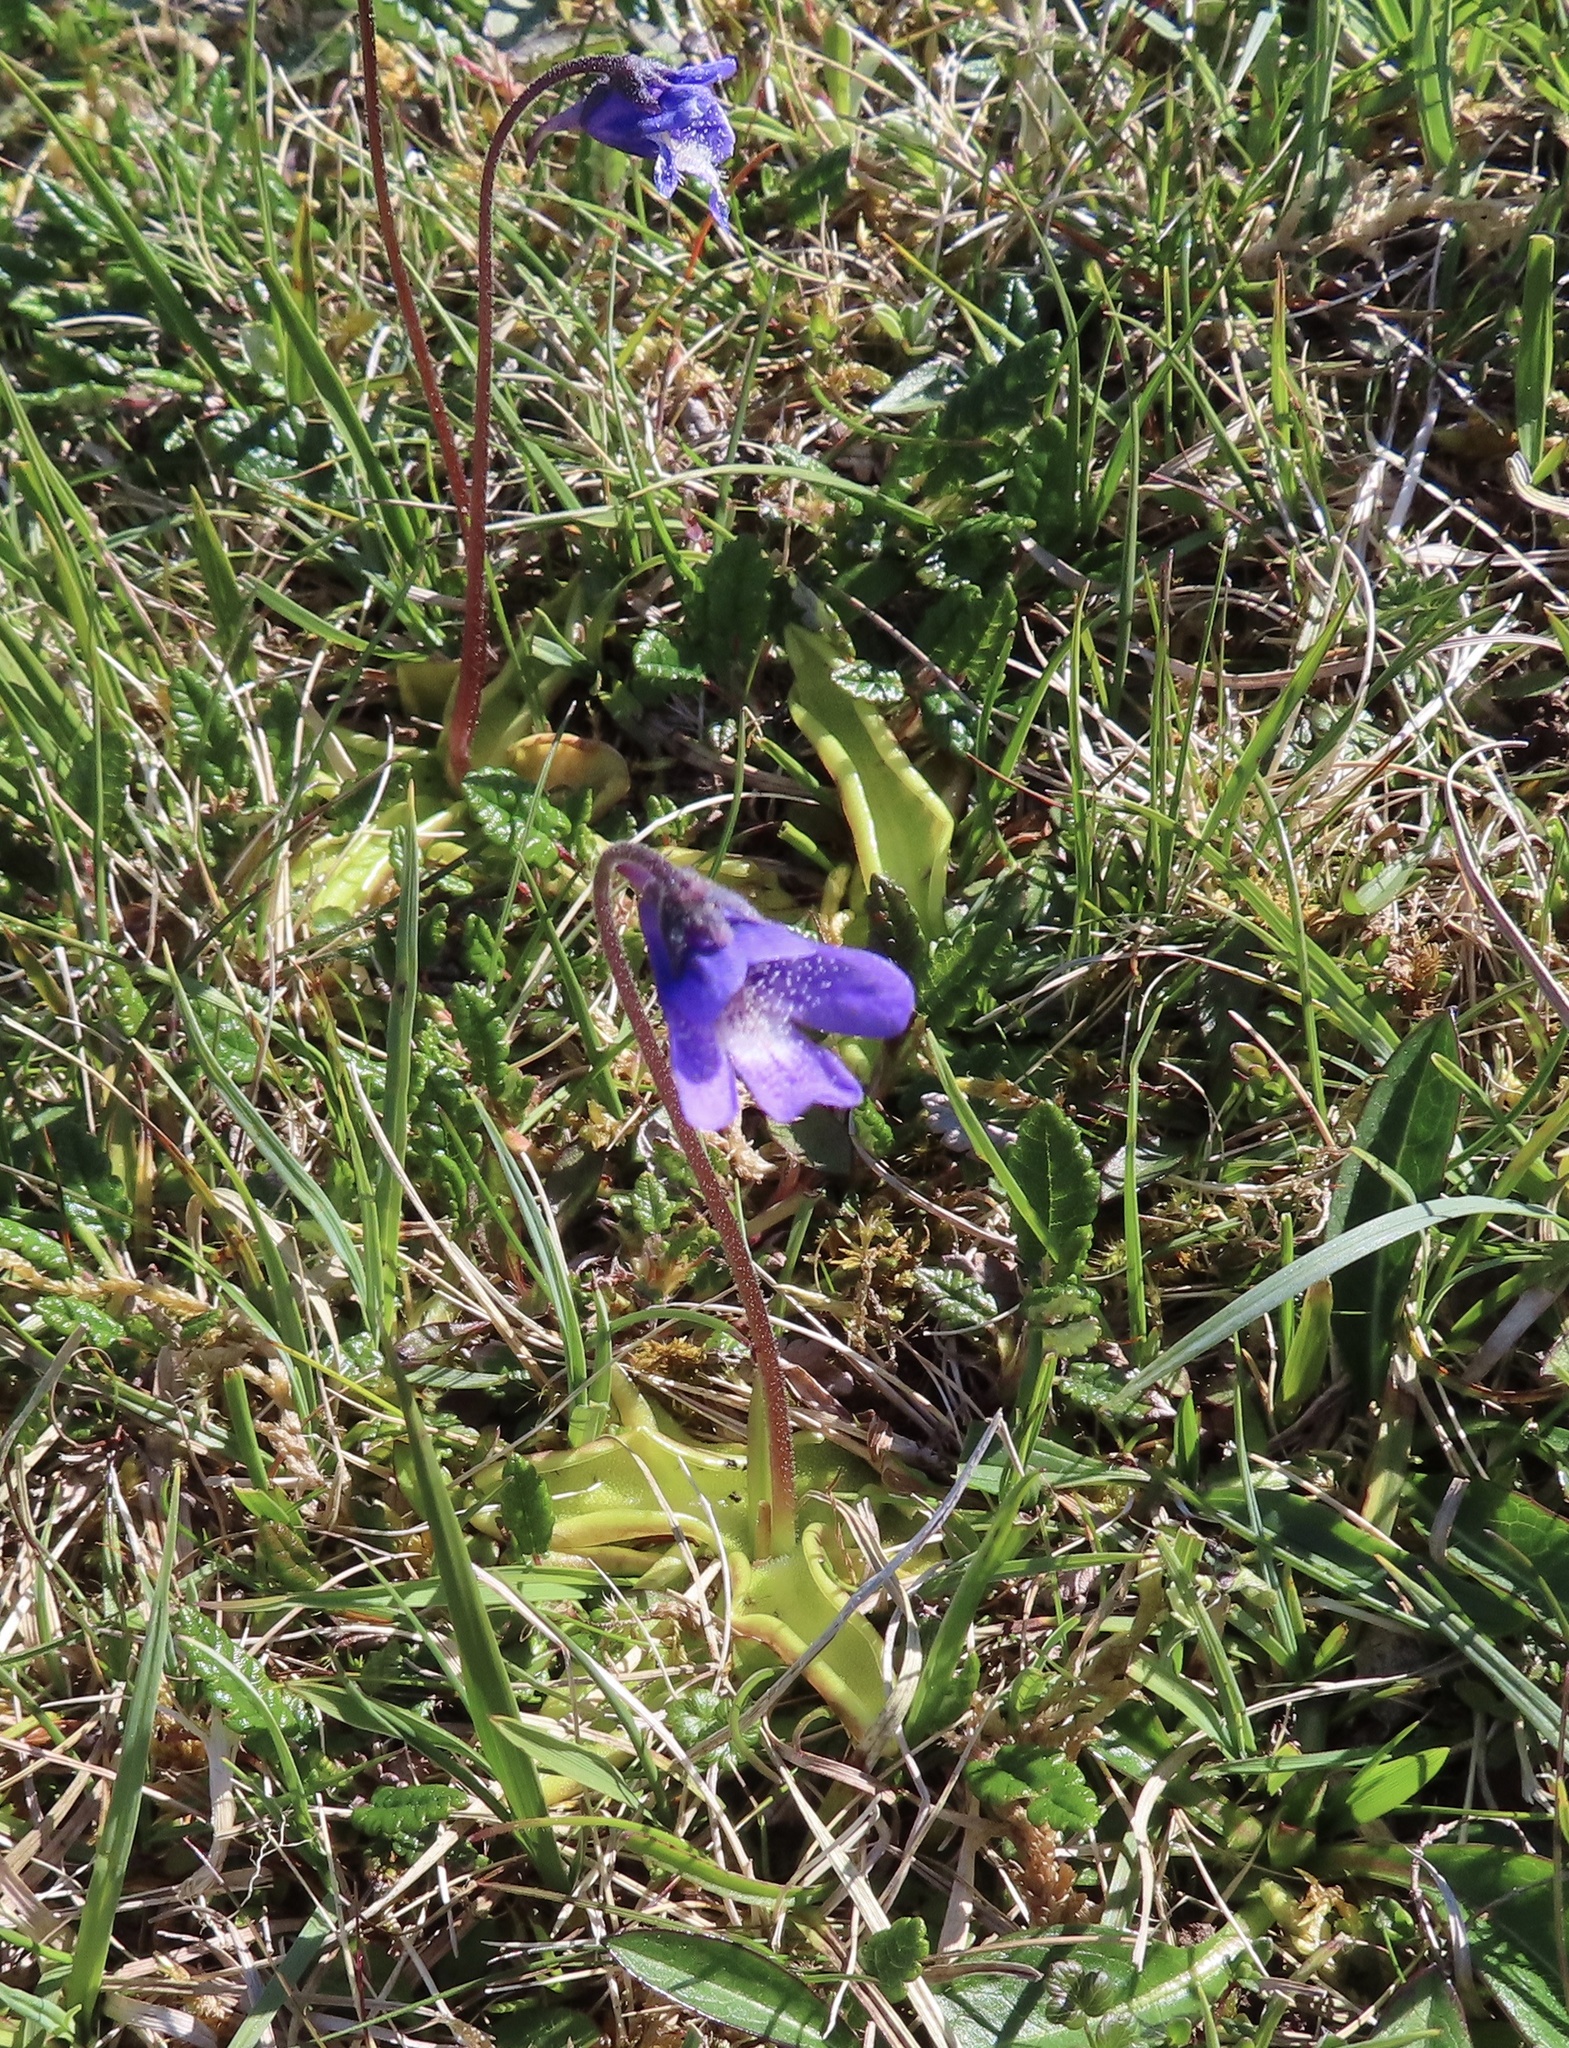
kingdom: Plantae
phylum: Tracheophyta
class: Magnoliopsida
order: Lamiales
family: Lentibulariaceae
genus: Pinguicula
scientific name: Pinguicula vulgaris
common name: Common butterwort
